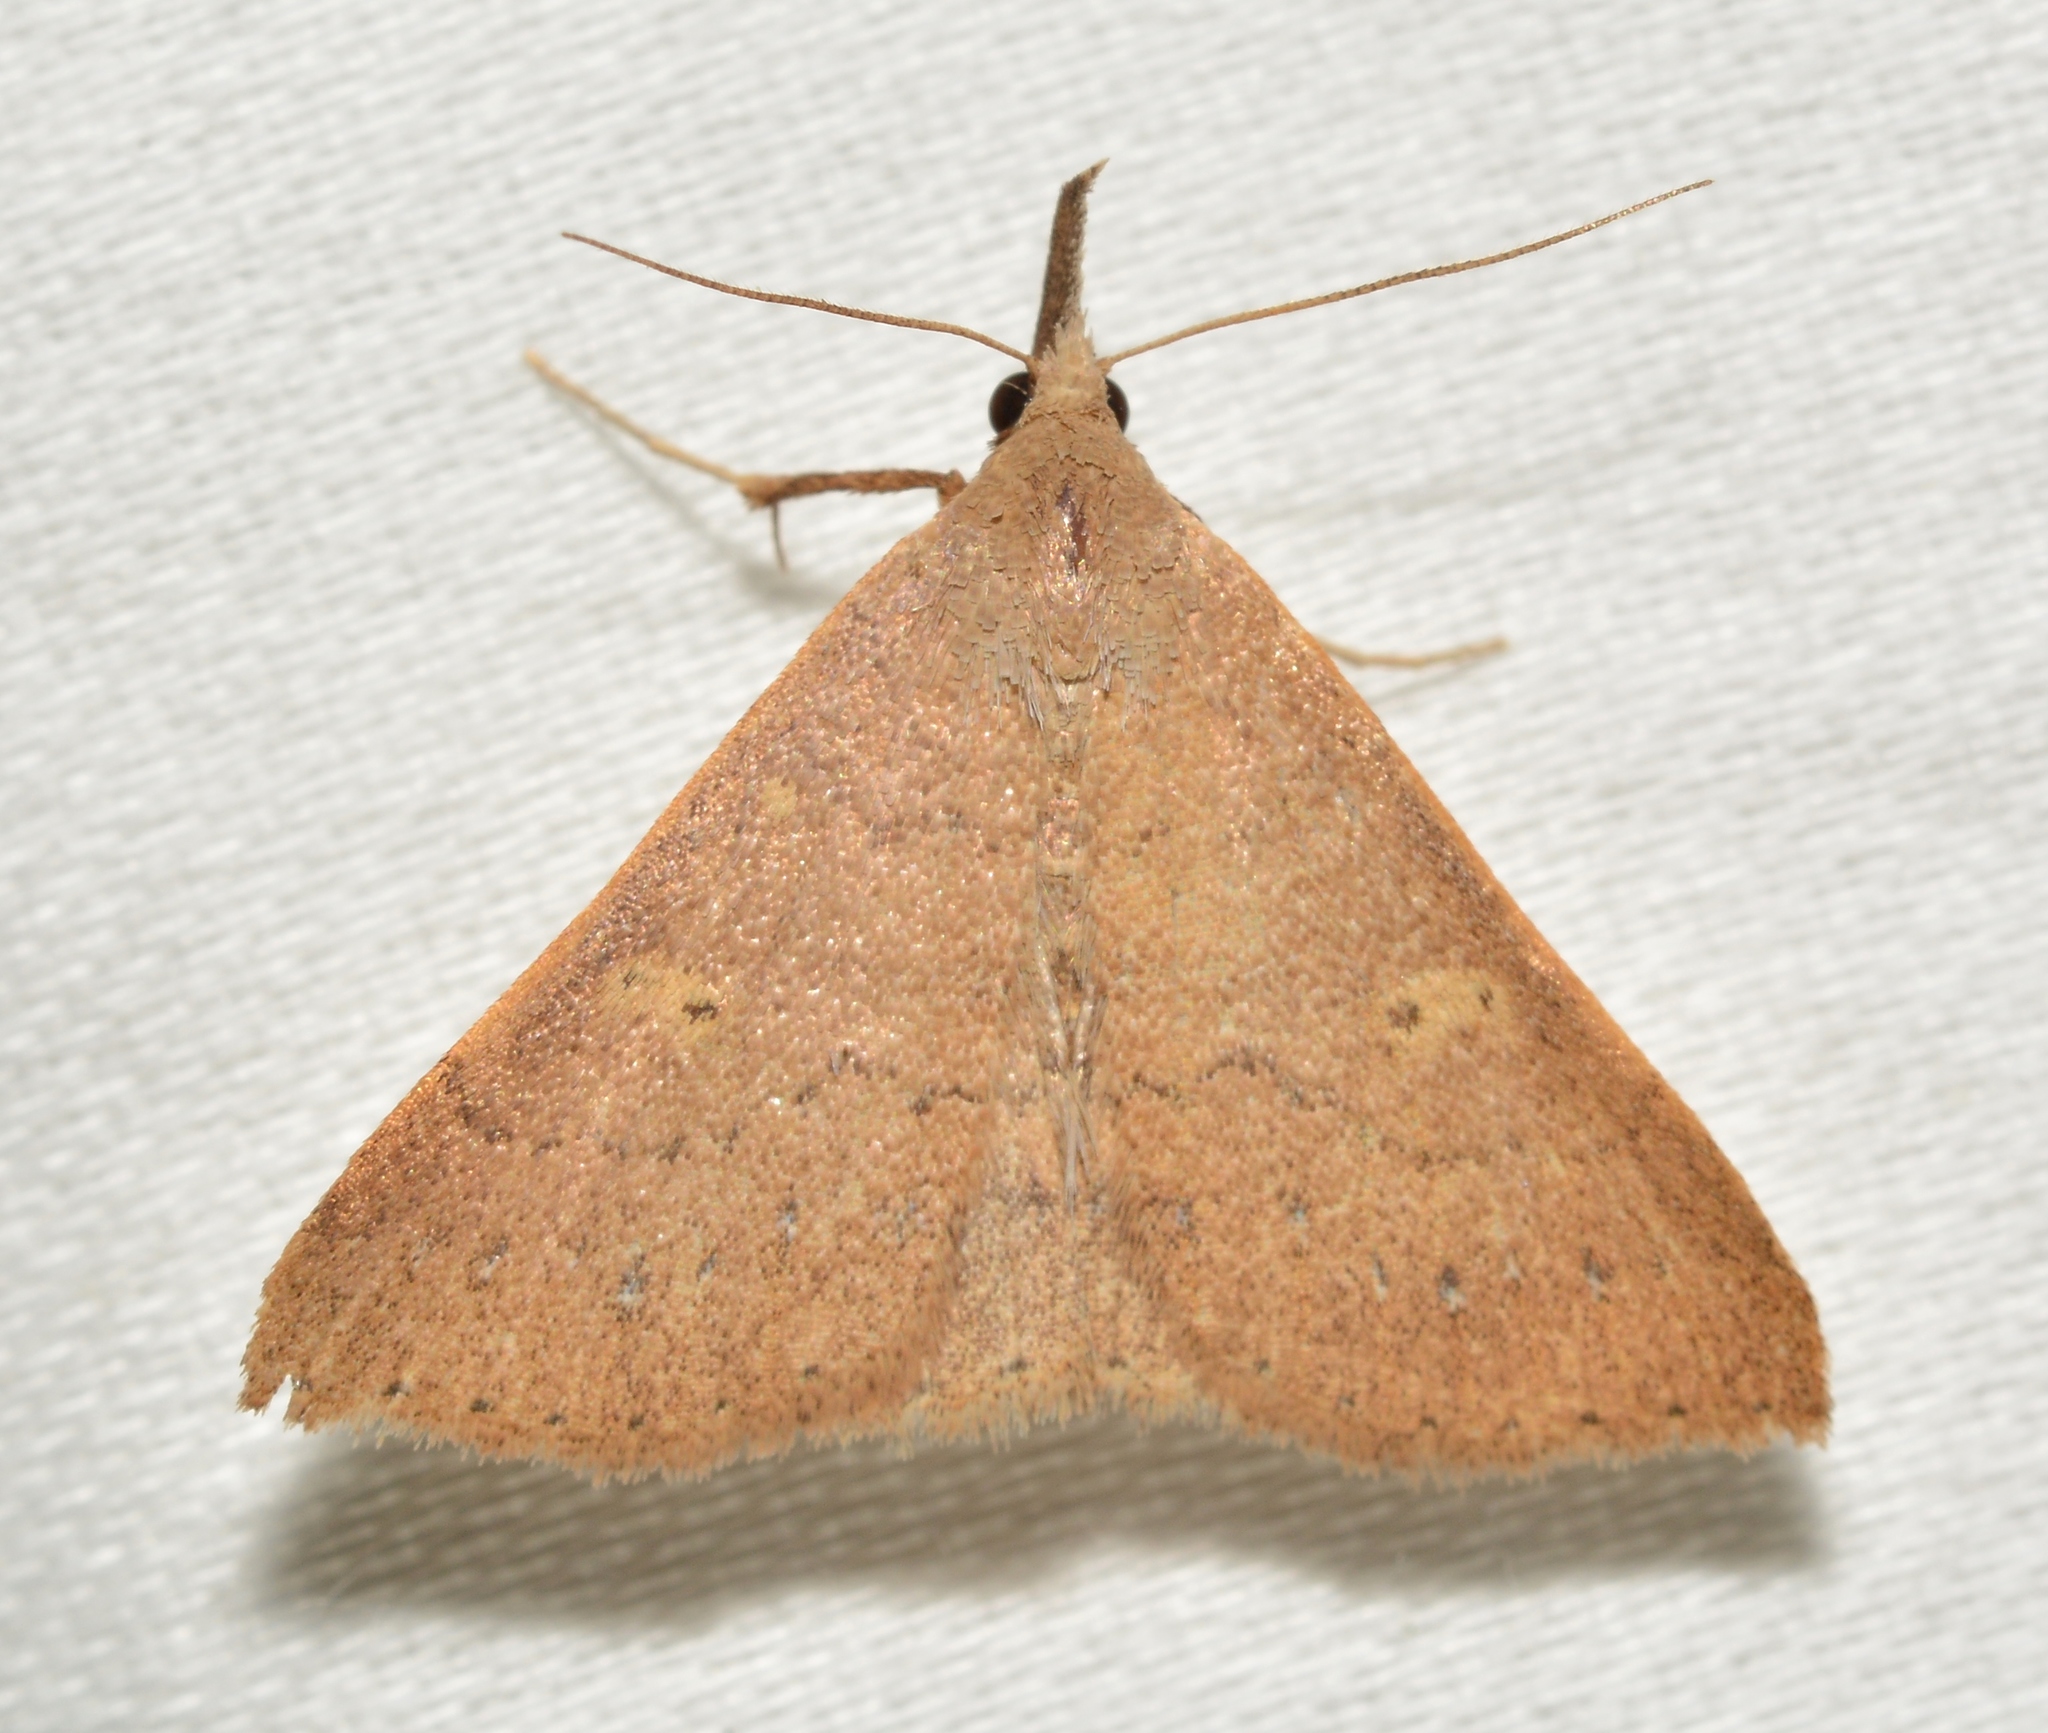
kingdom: Animalia
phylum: Arthropoda
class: Insecta
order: Lepidoptera
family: Erebidae
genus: Renia
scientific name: Renia fraternalis
